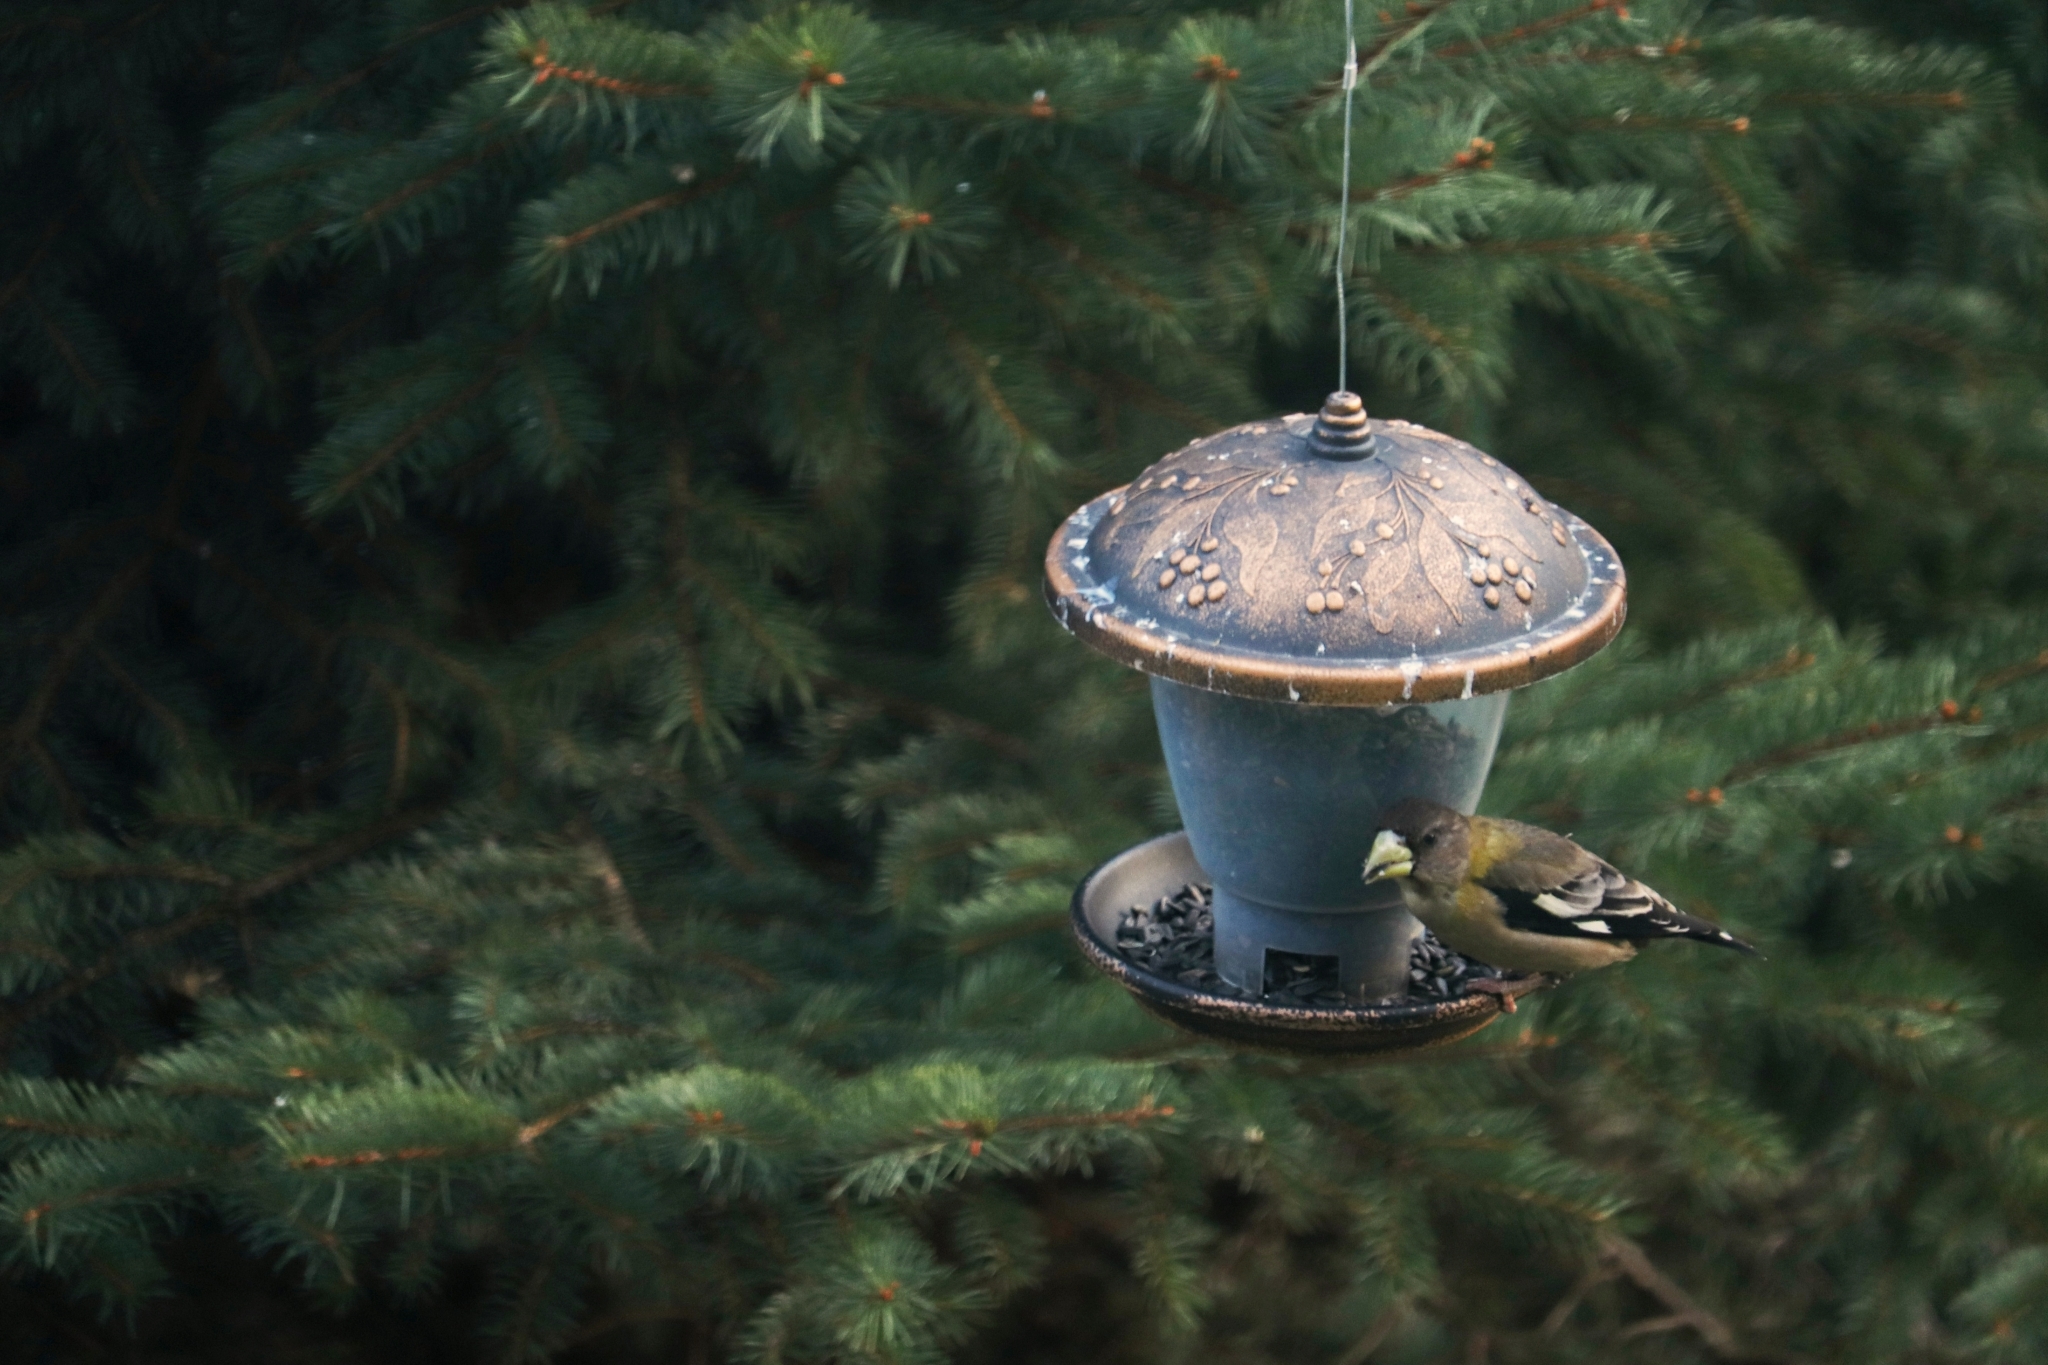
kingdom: Animalia
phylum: Chordata
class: Aves
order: Passeriformes
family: Fringillidae
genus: Hesperiphona
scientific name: Hesperiphona vespertina
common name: Evening grosbeak
